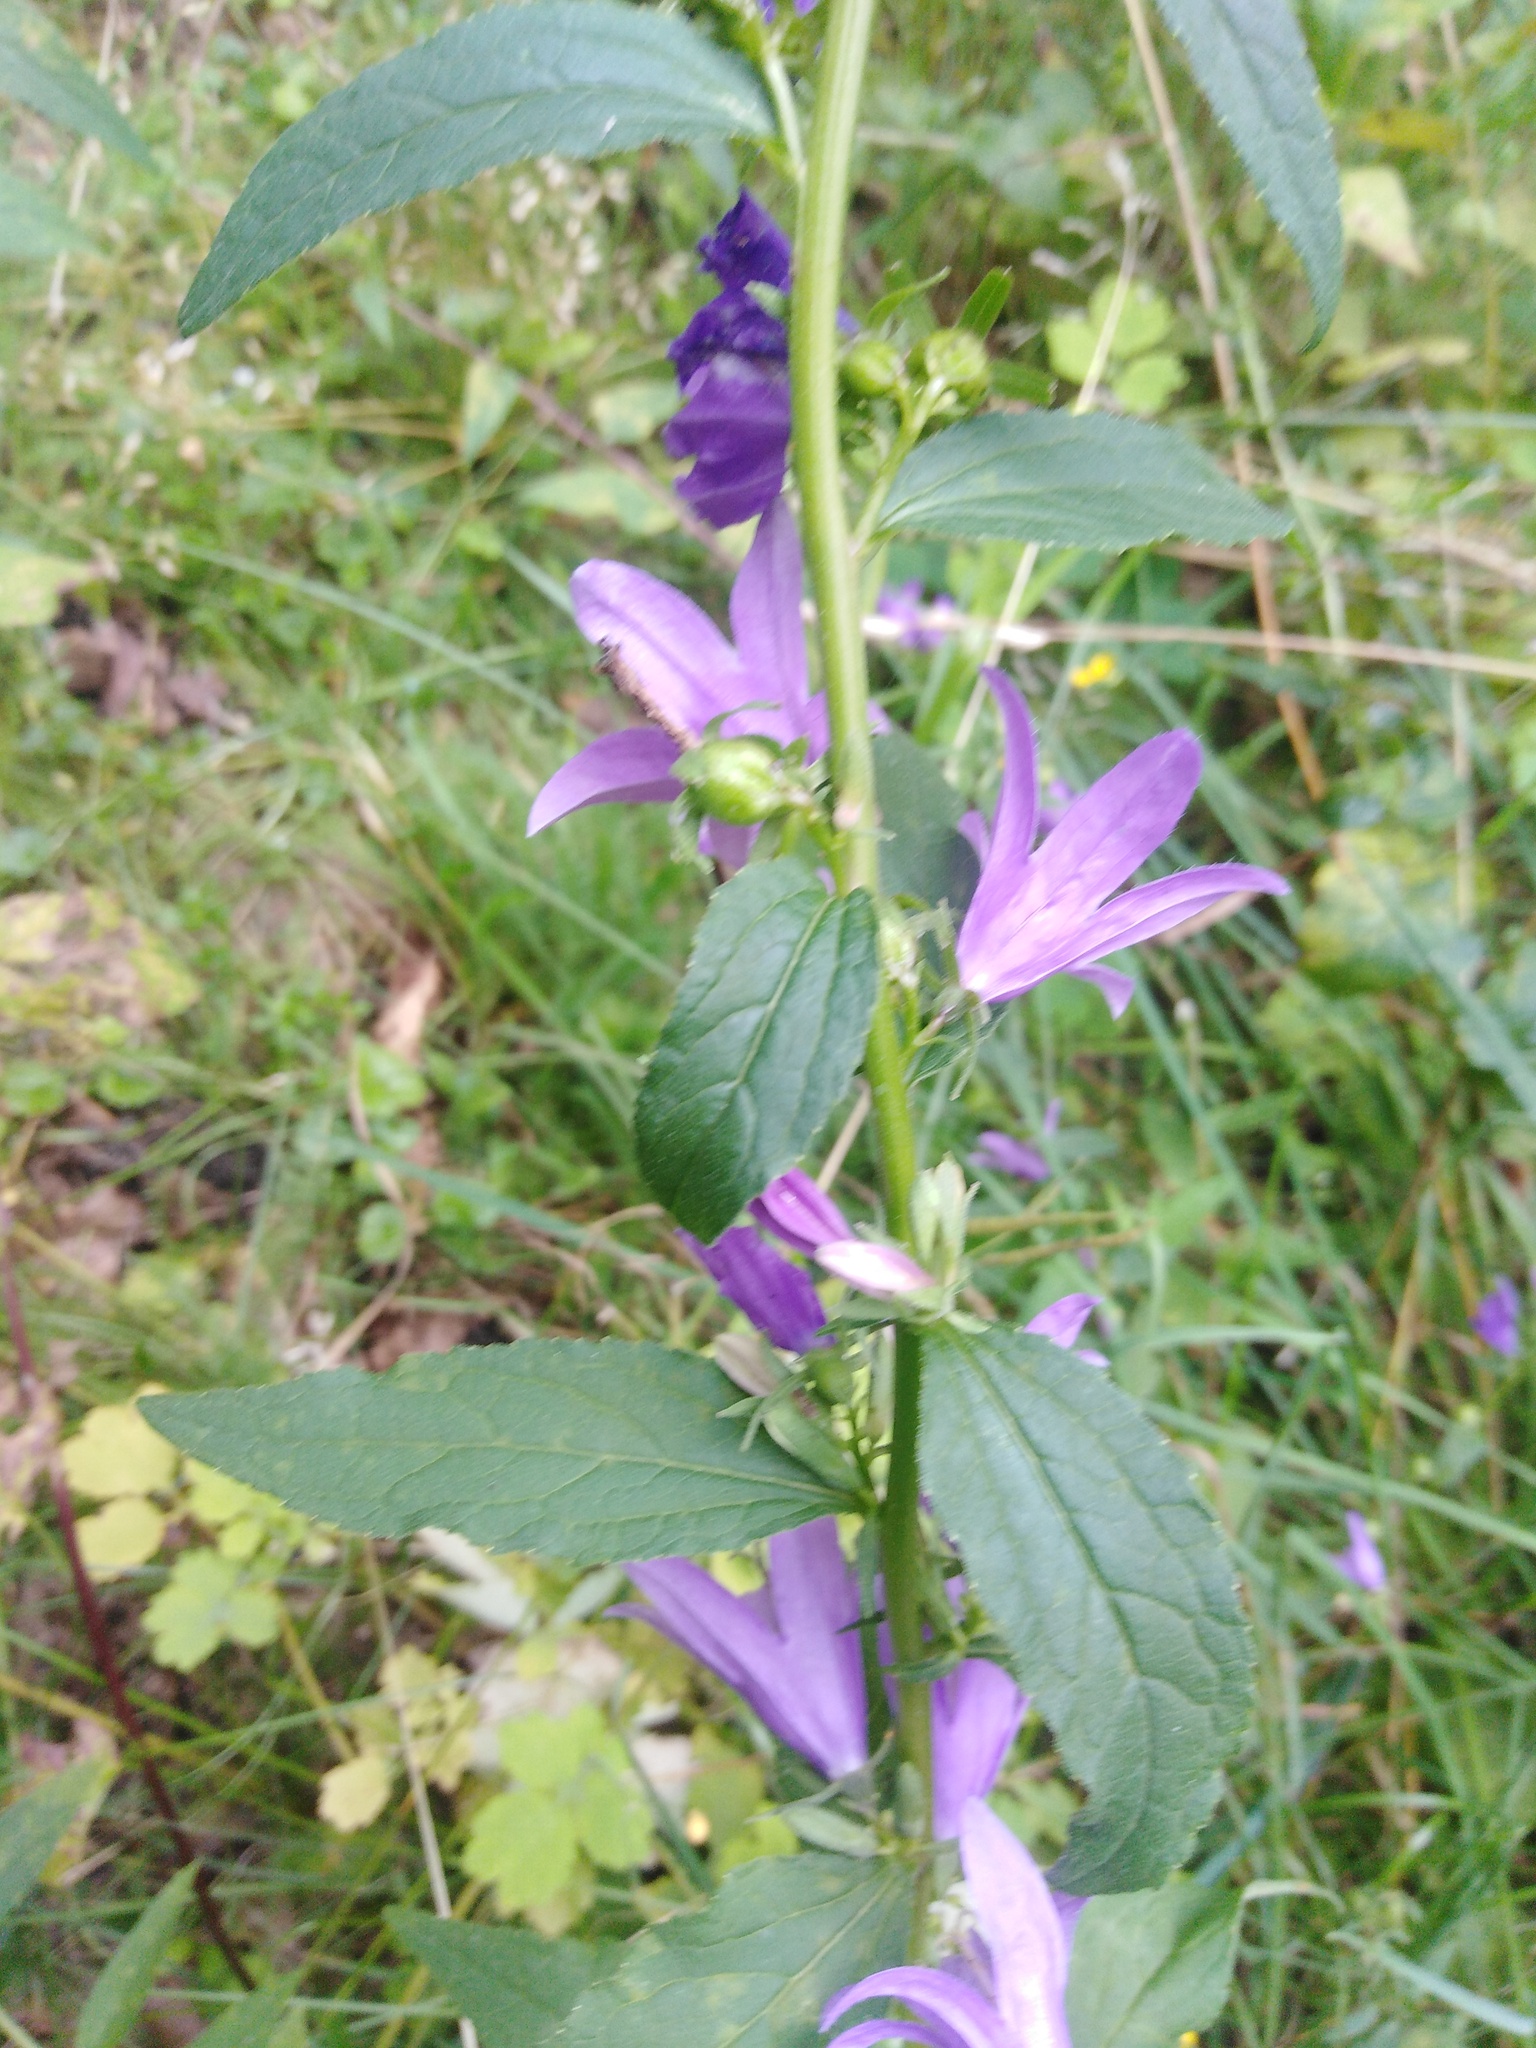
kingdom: Plantae
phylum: Tracheophyta
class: Magnoliopsida
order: Asterales
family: Campanulaceae
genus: Campanula
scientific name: Campanula rapunculoides
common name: Creeping bellflower
